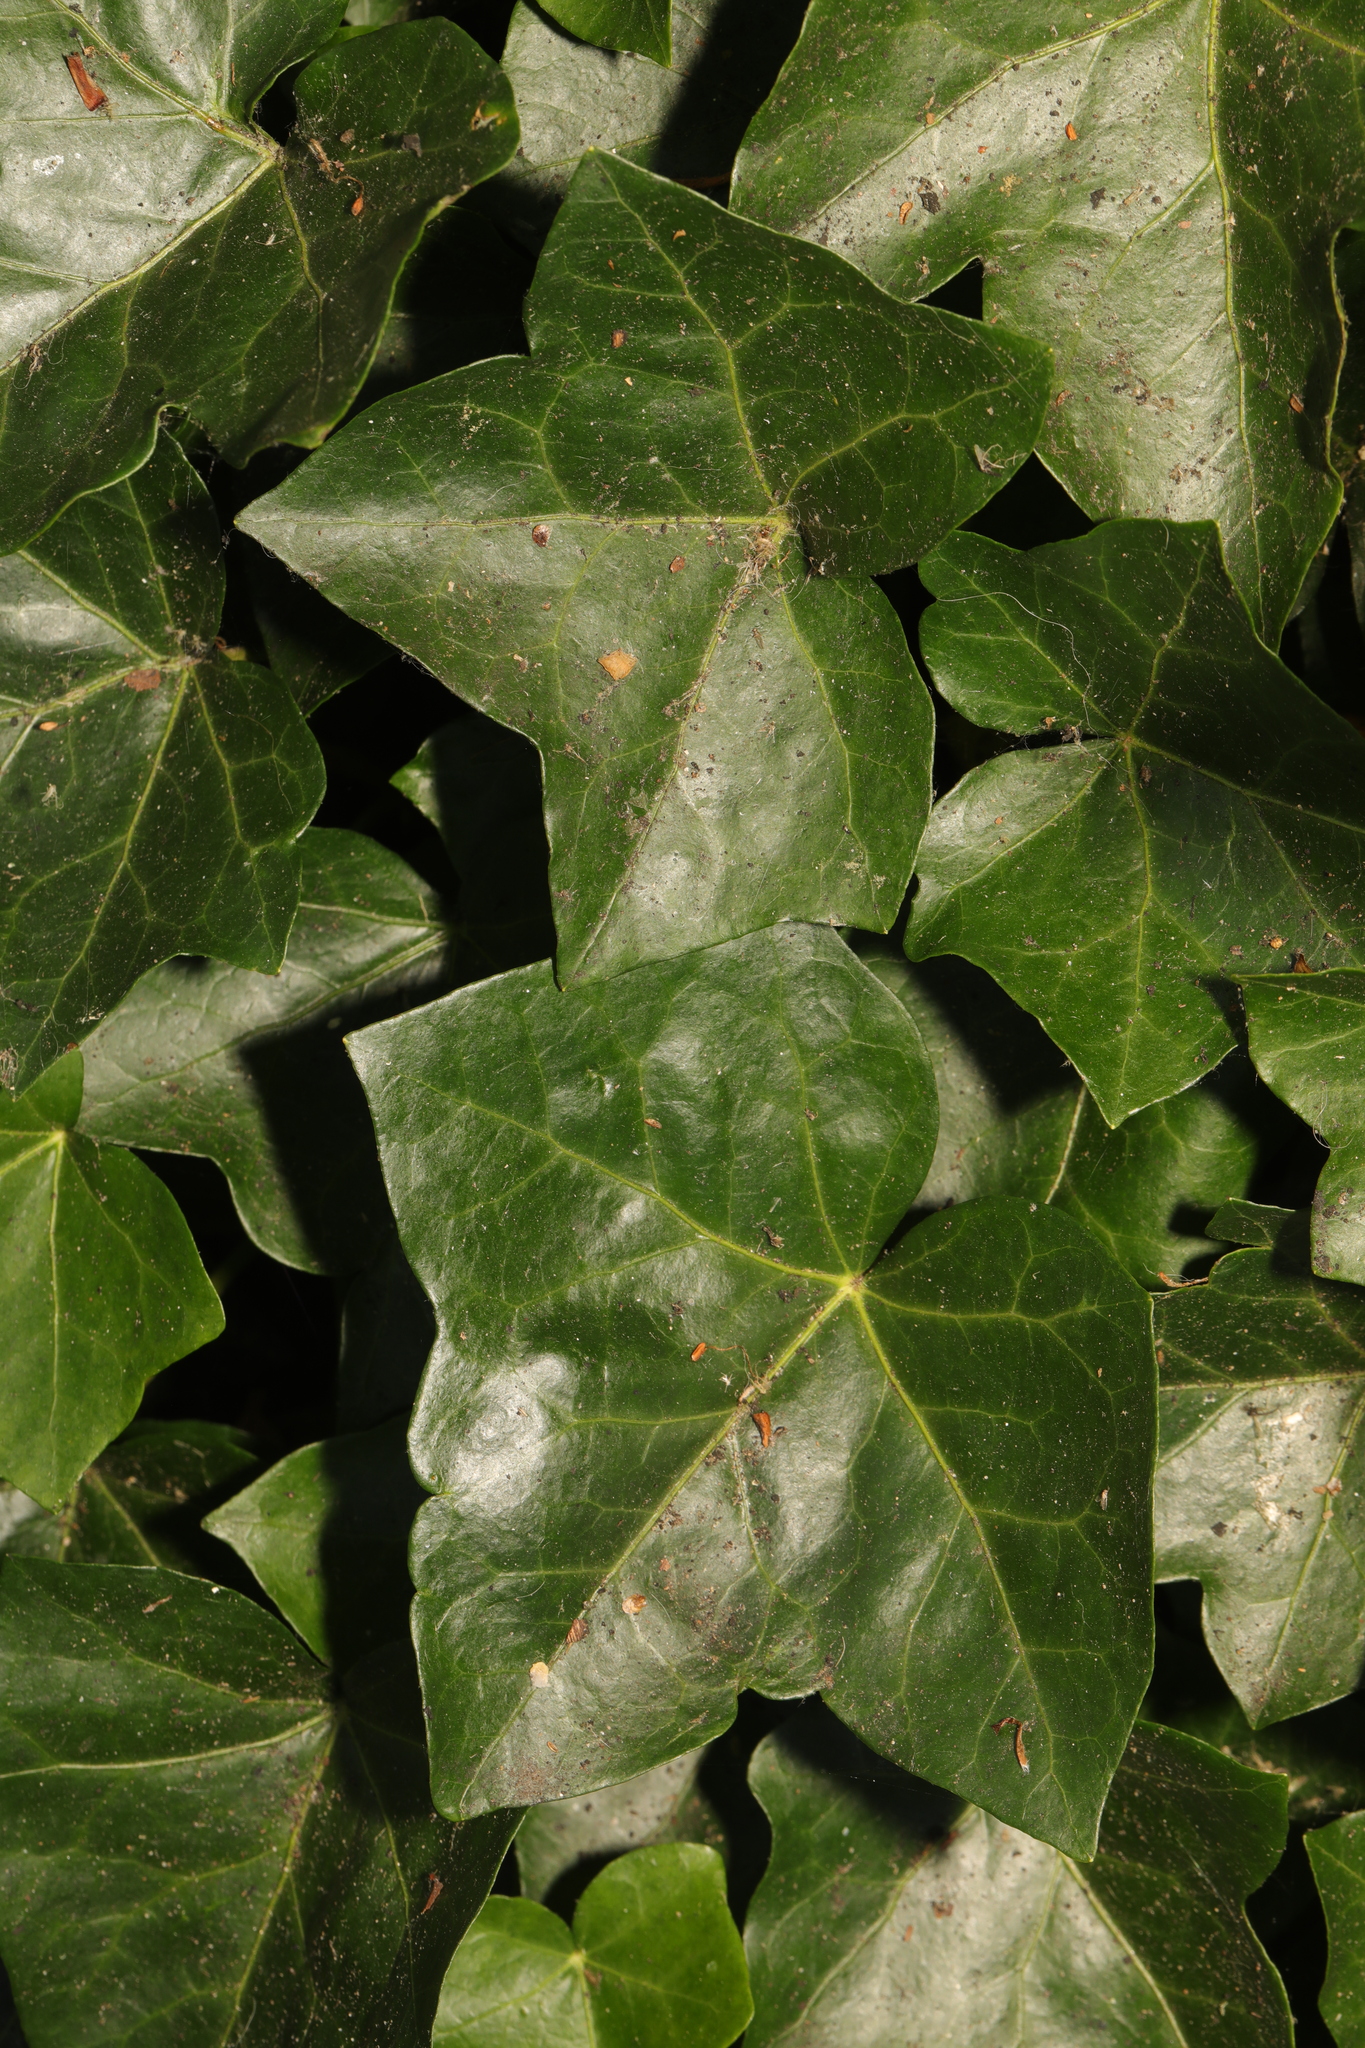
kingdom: Plantae
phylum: Tracheophyta
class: Magnoliopsida
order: Apiales
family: Araliaceae
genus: Hedera
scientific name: Hedera helix
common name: Ivy
